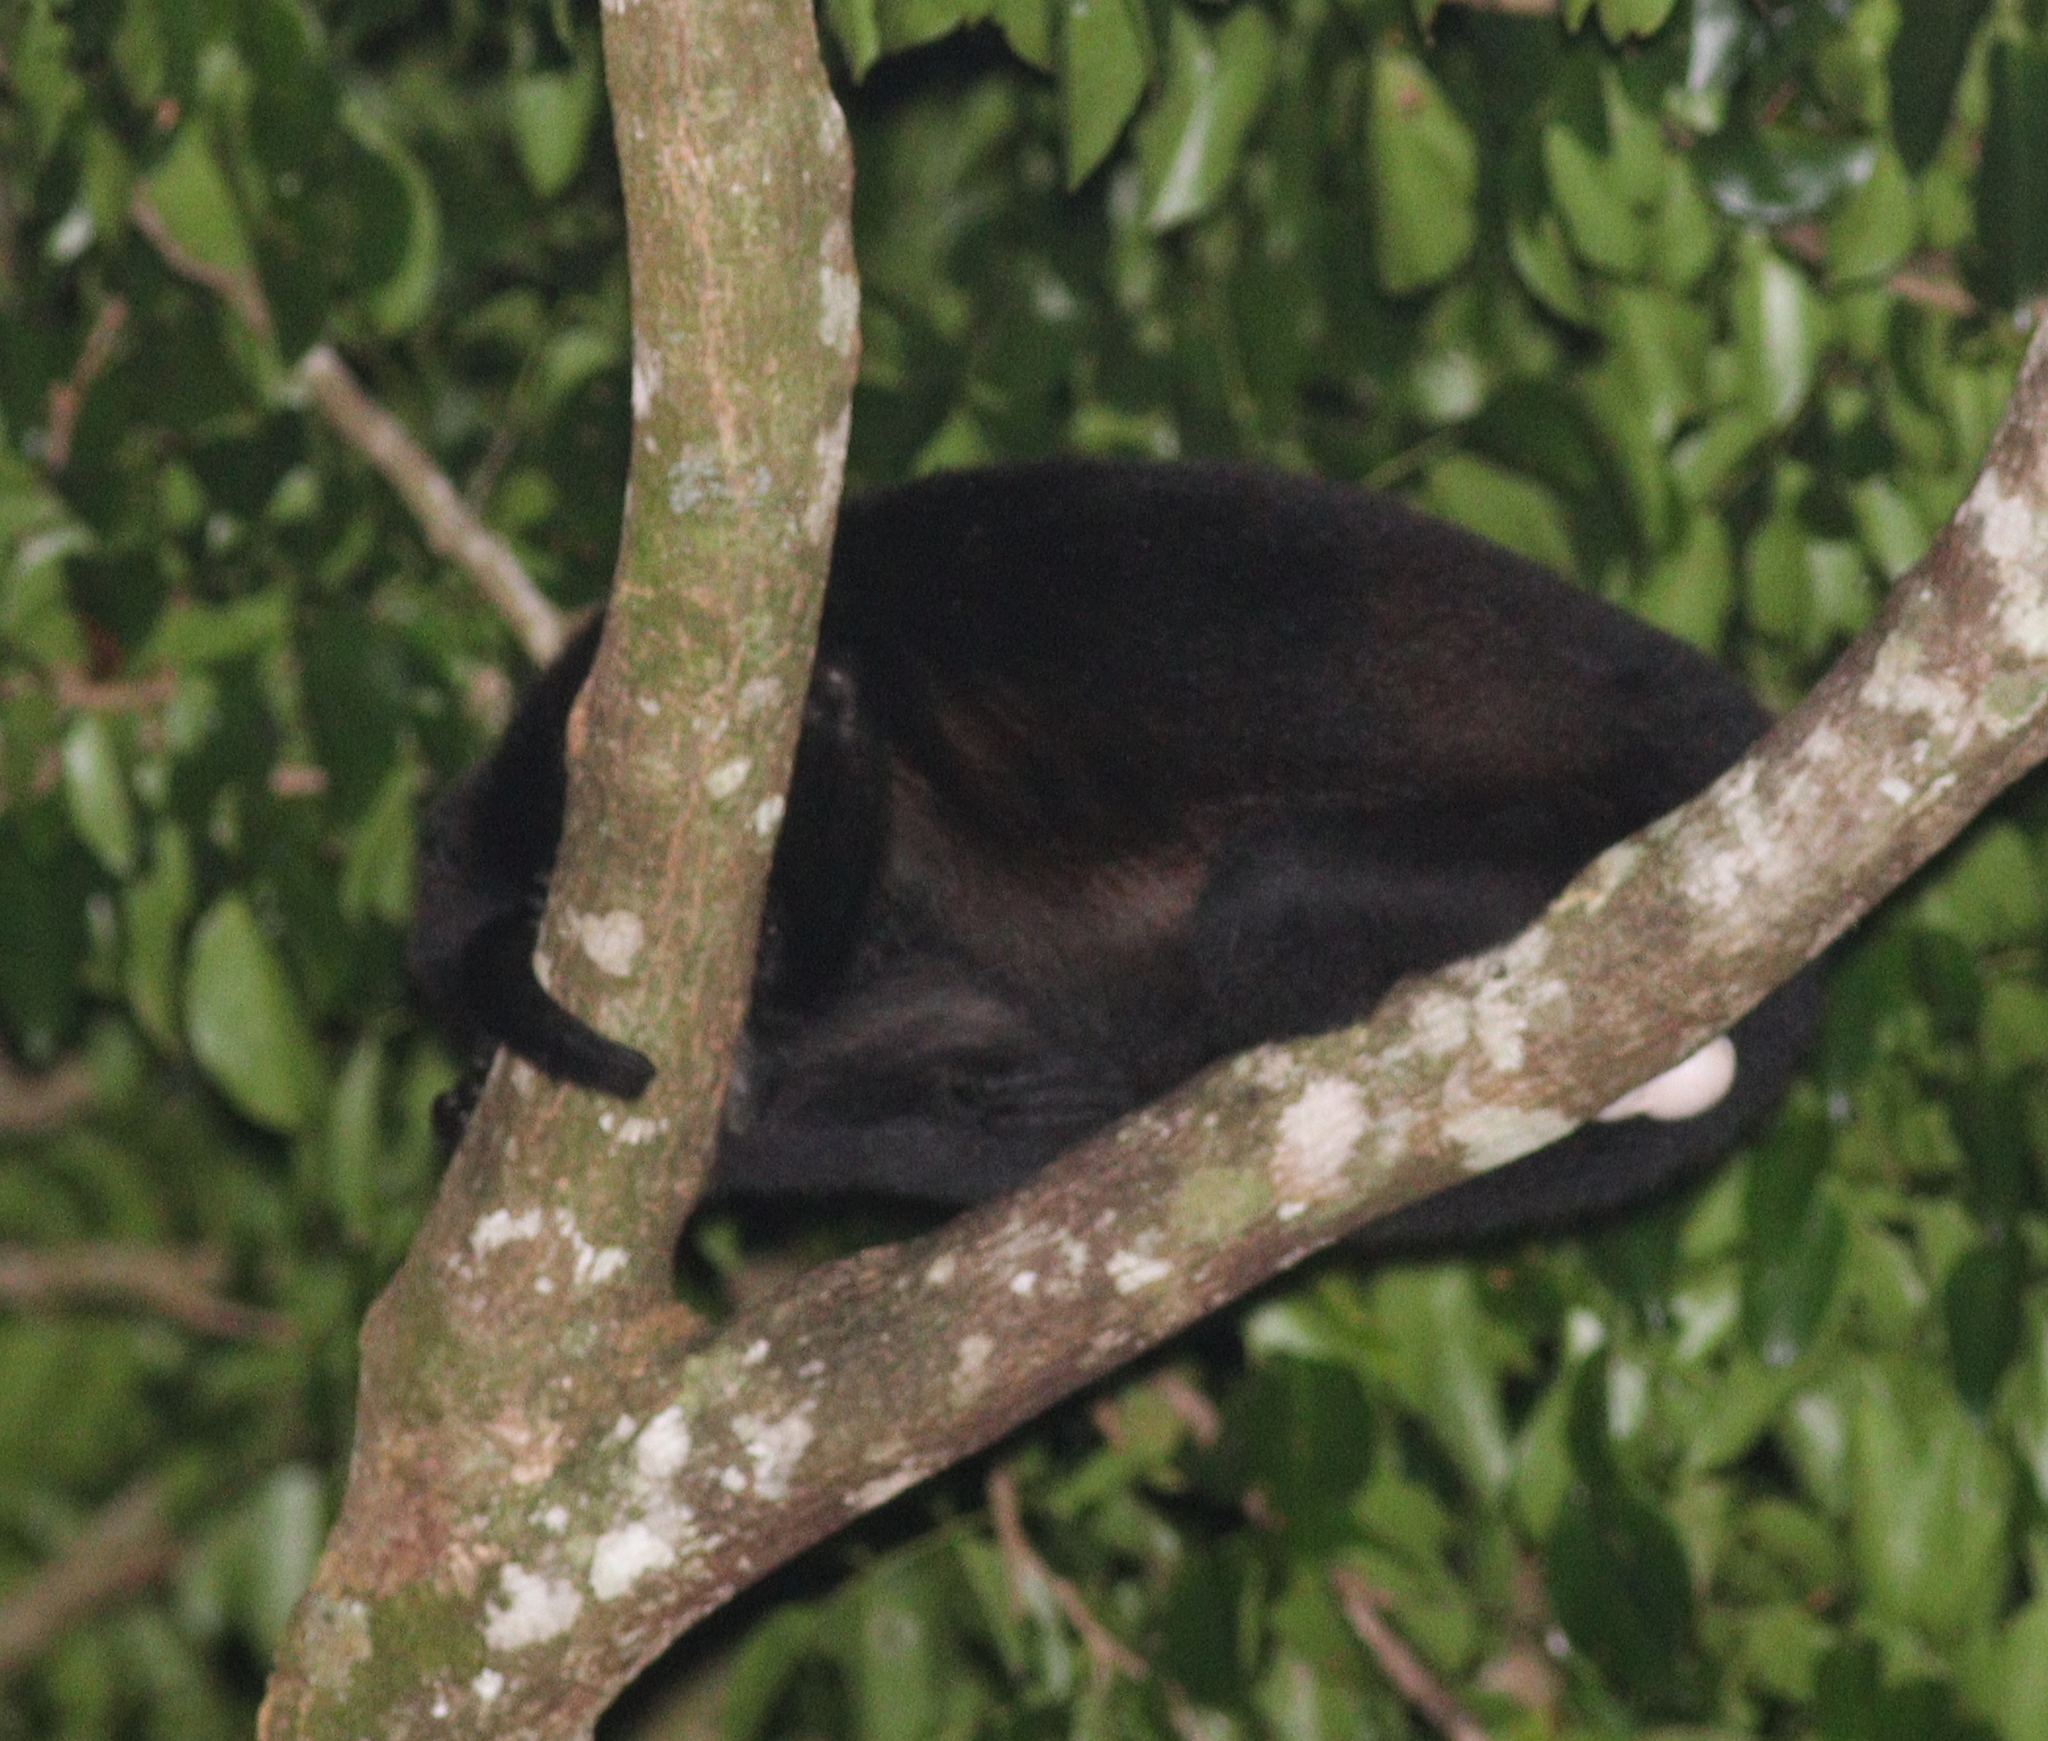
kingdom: Animalia
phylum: Chordata
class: Mammalia
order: Primates
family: Atelidae
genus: Alouatta
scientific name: Alouatta palliata
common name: Mantled howler
